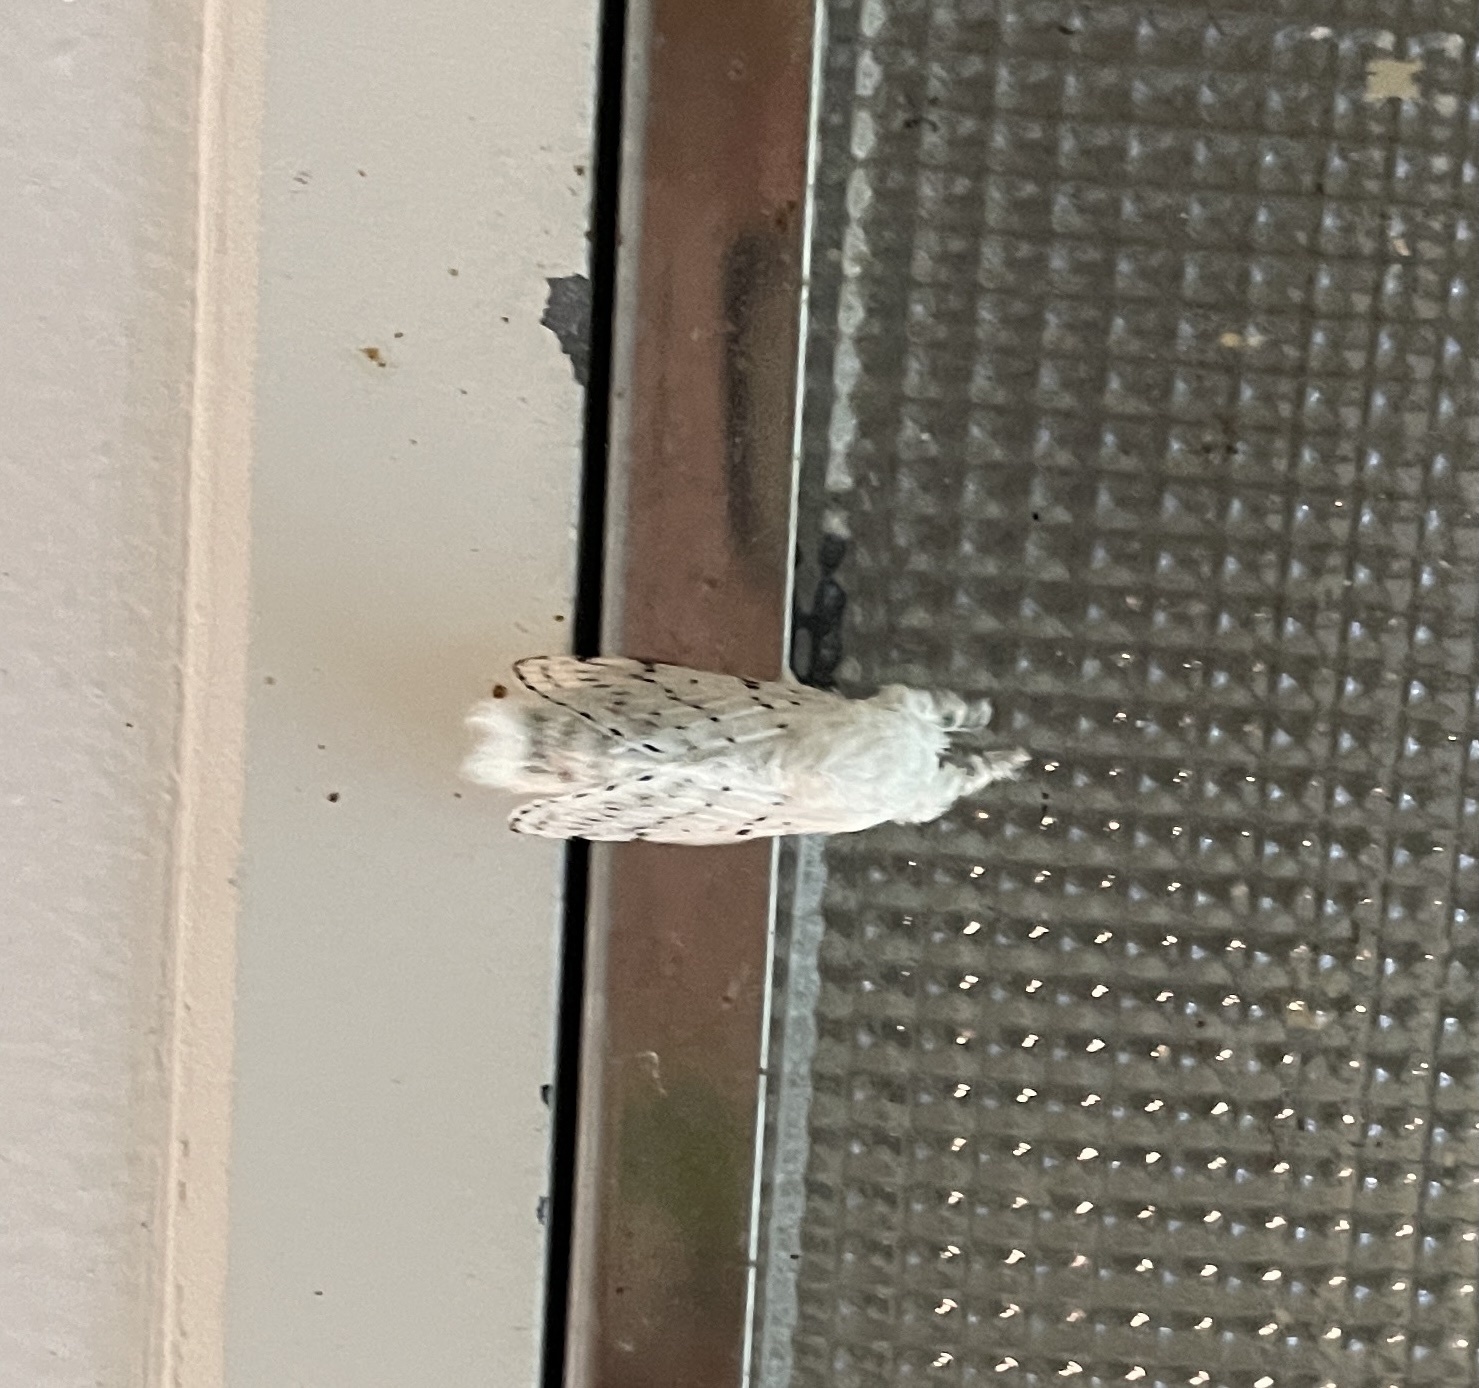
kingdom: Animalia
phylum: Arthropoda
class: Insecta
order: Lepidoptera
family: Lasiocampidae
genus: Artace
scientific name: Artace cribrarius
